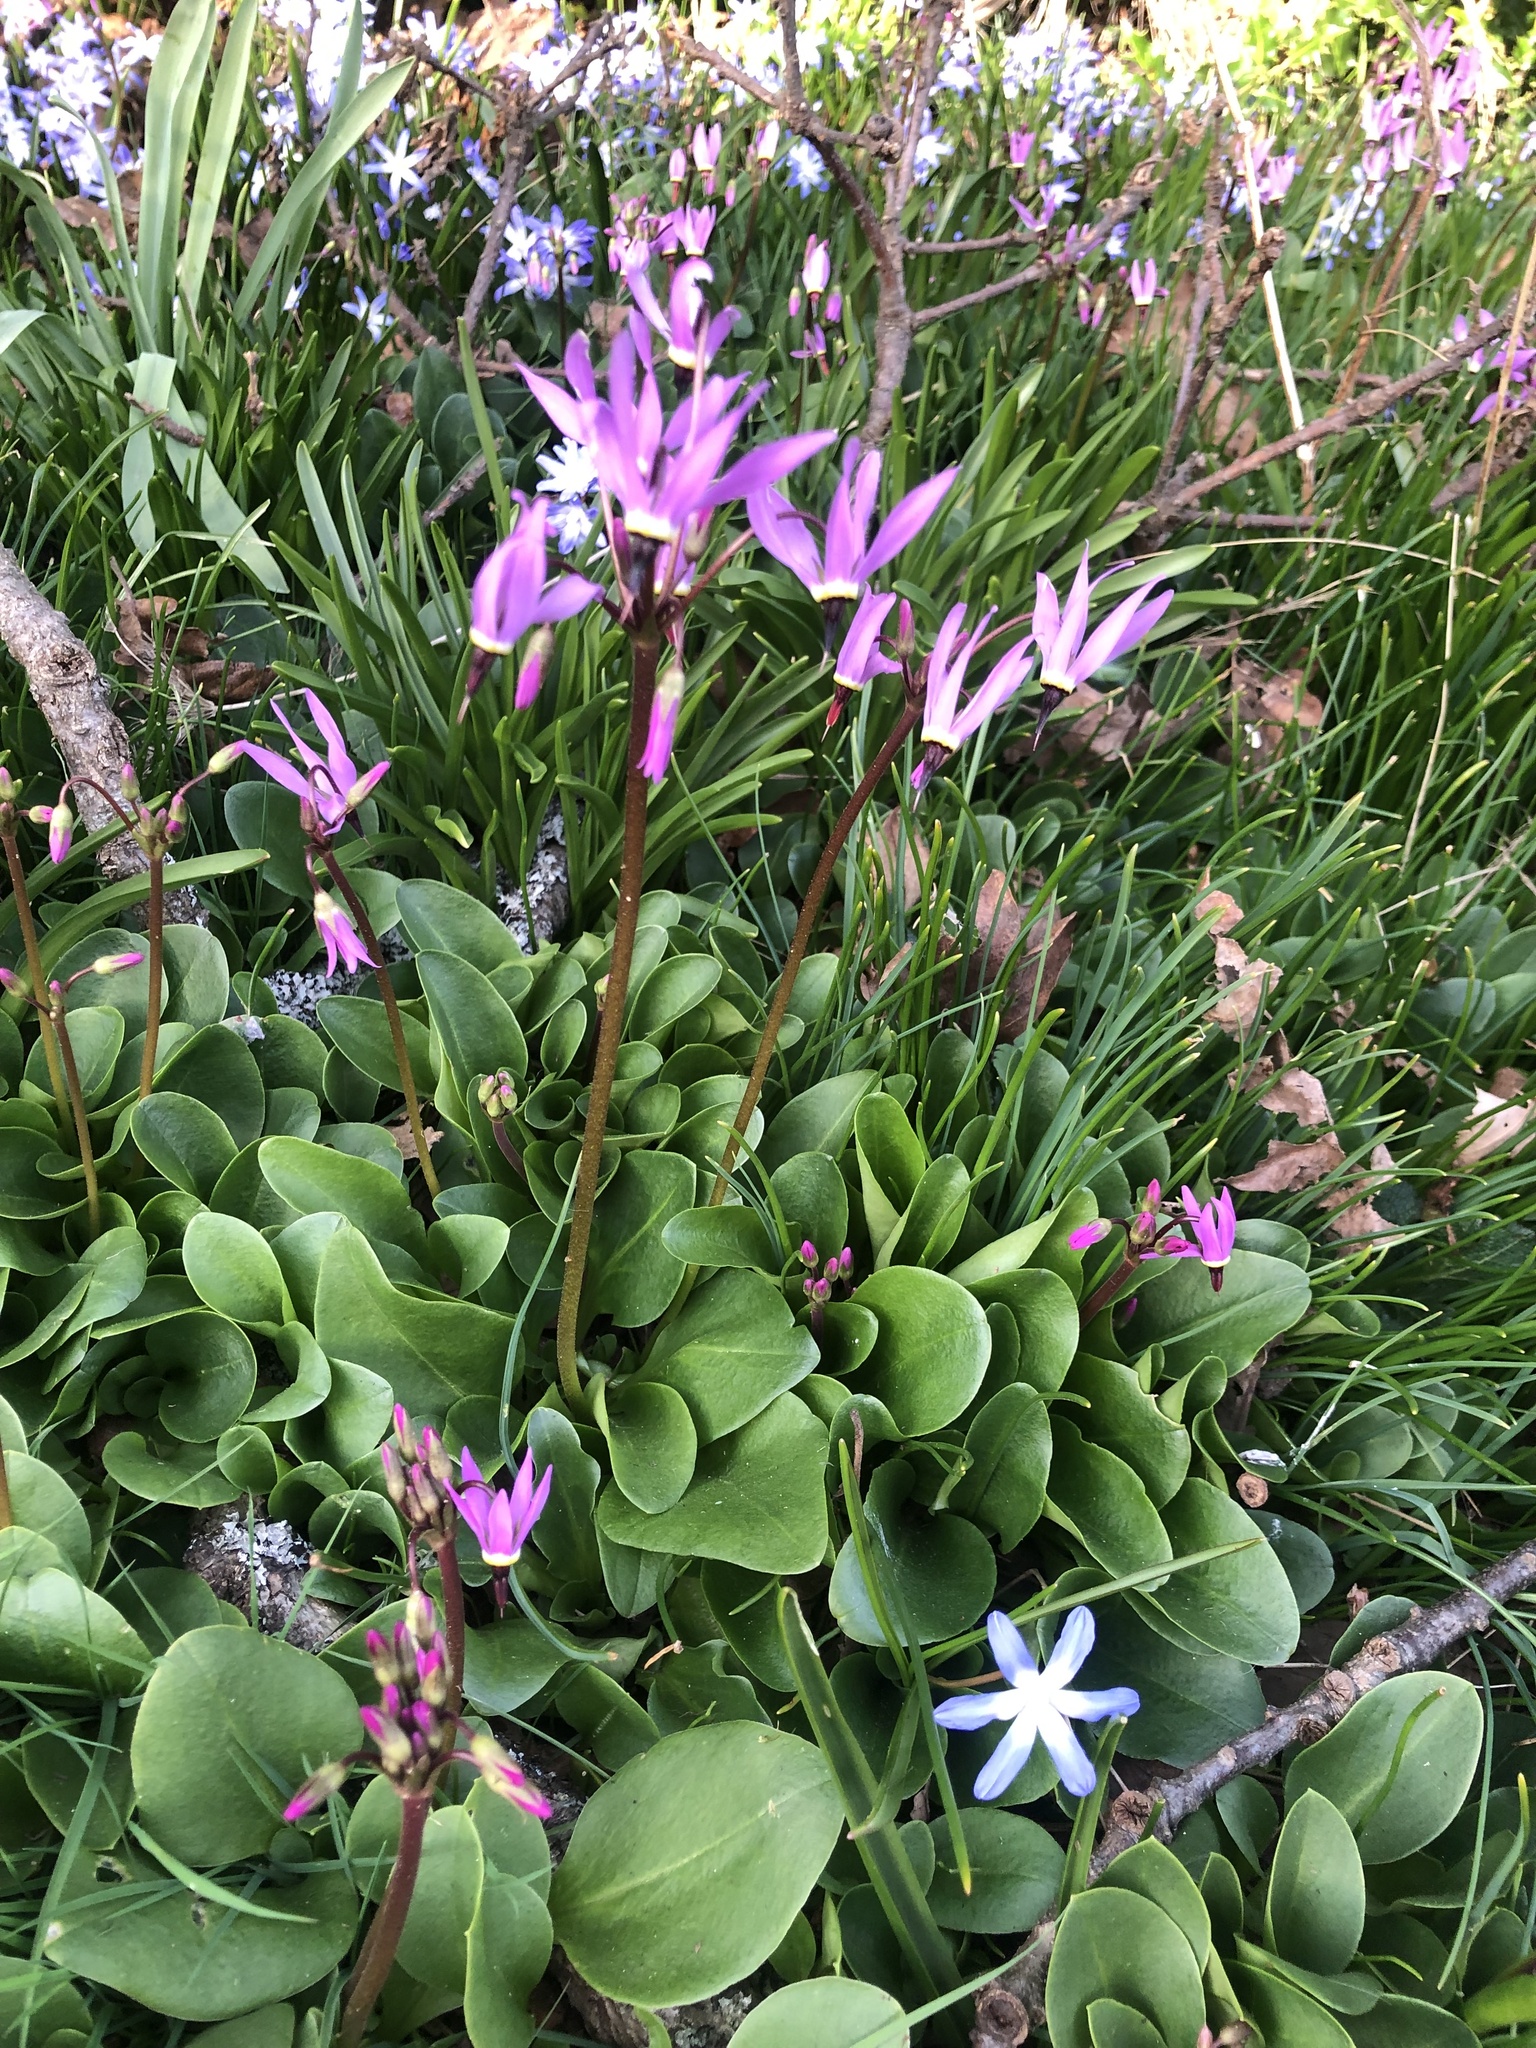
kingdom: Plantae
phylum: Tracheophyta
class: Magnoliopsida
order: Ericales
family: Primulaceae
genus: Dodecatheon
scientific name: Dodecatheon hendersonii
